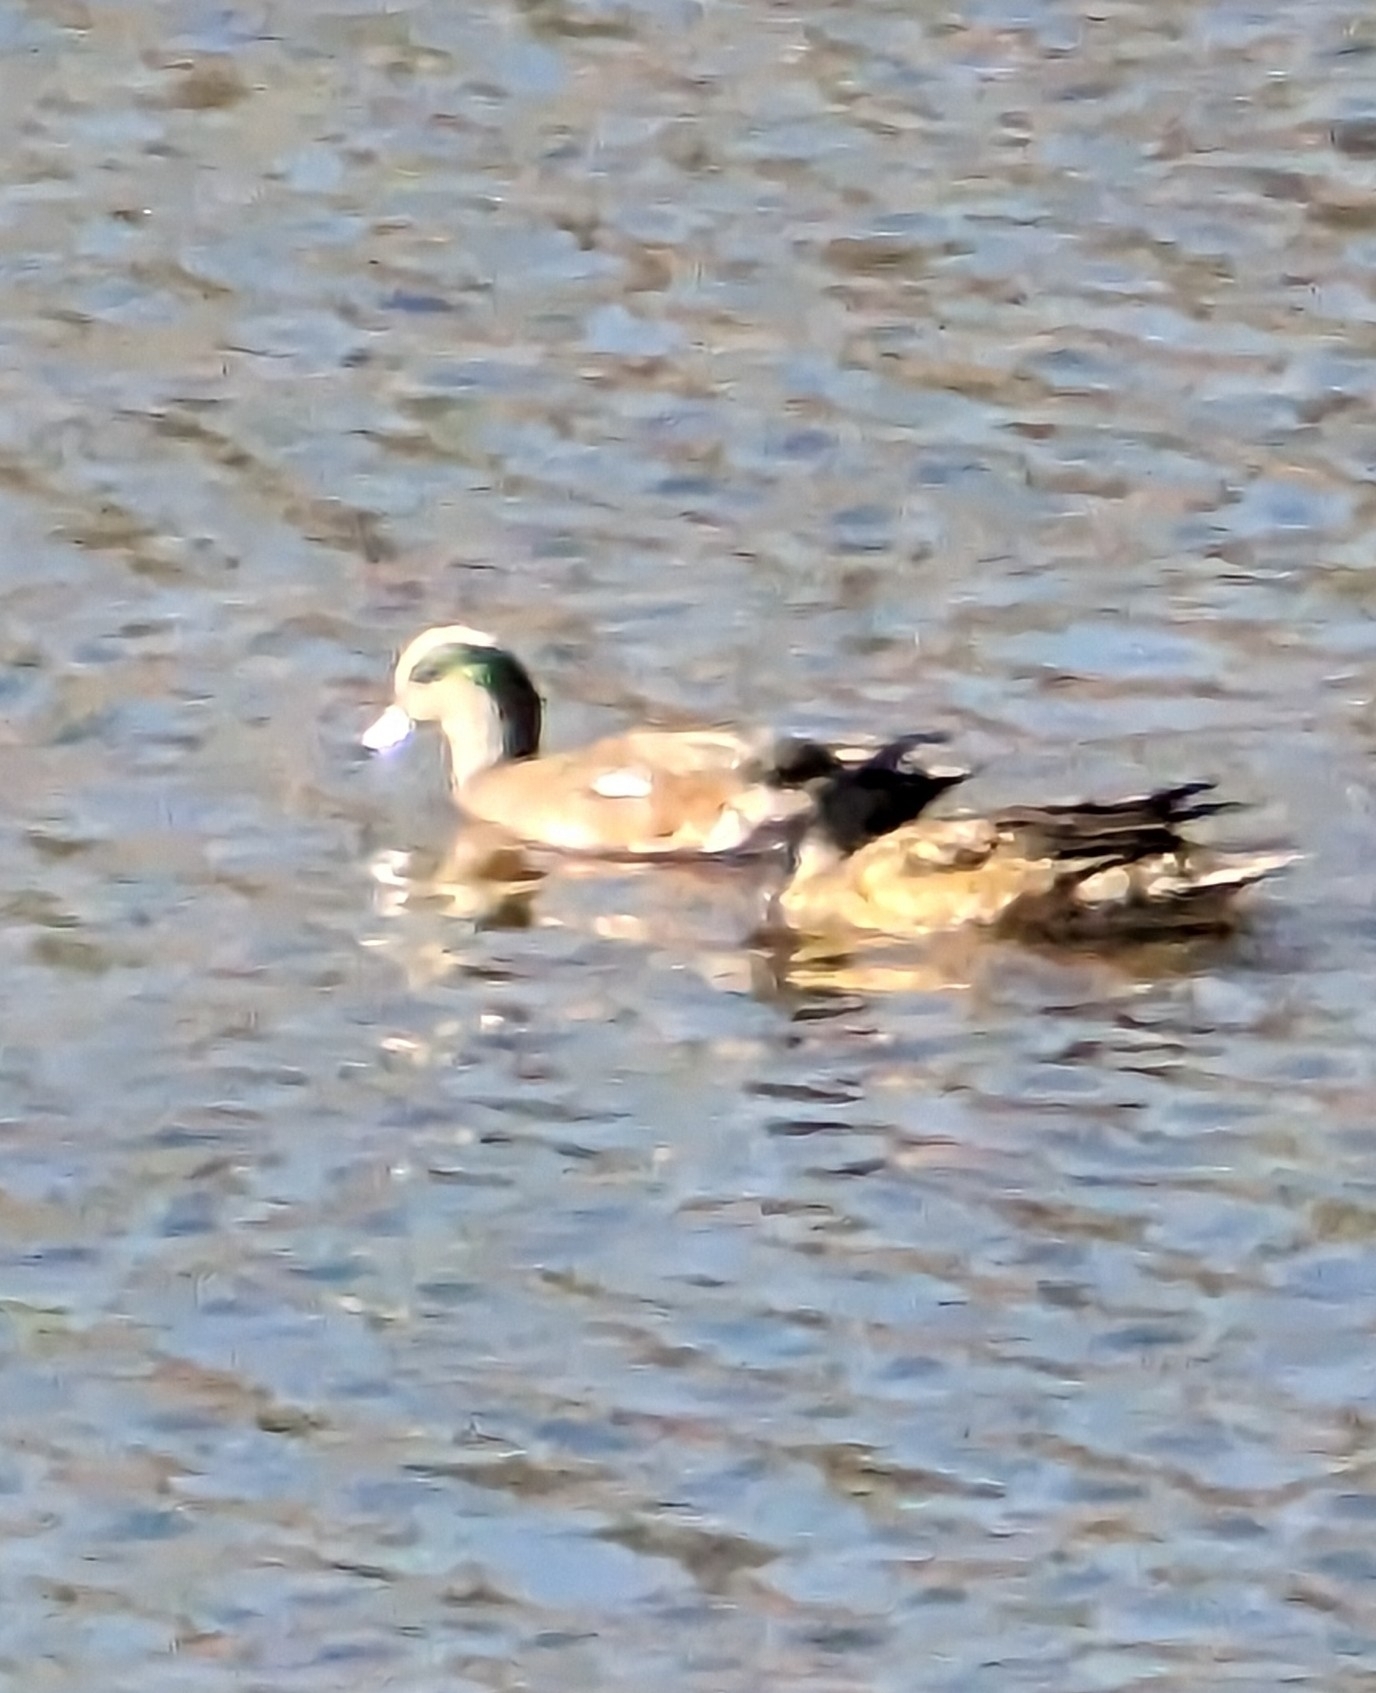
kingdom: Animalia
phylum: Chordata
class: Aves
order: Anseriformes
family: Anatidae
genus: Mareca
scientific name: Mareca americana
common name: American wigeon
